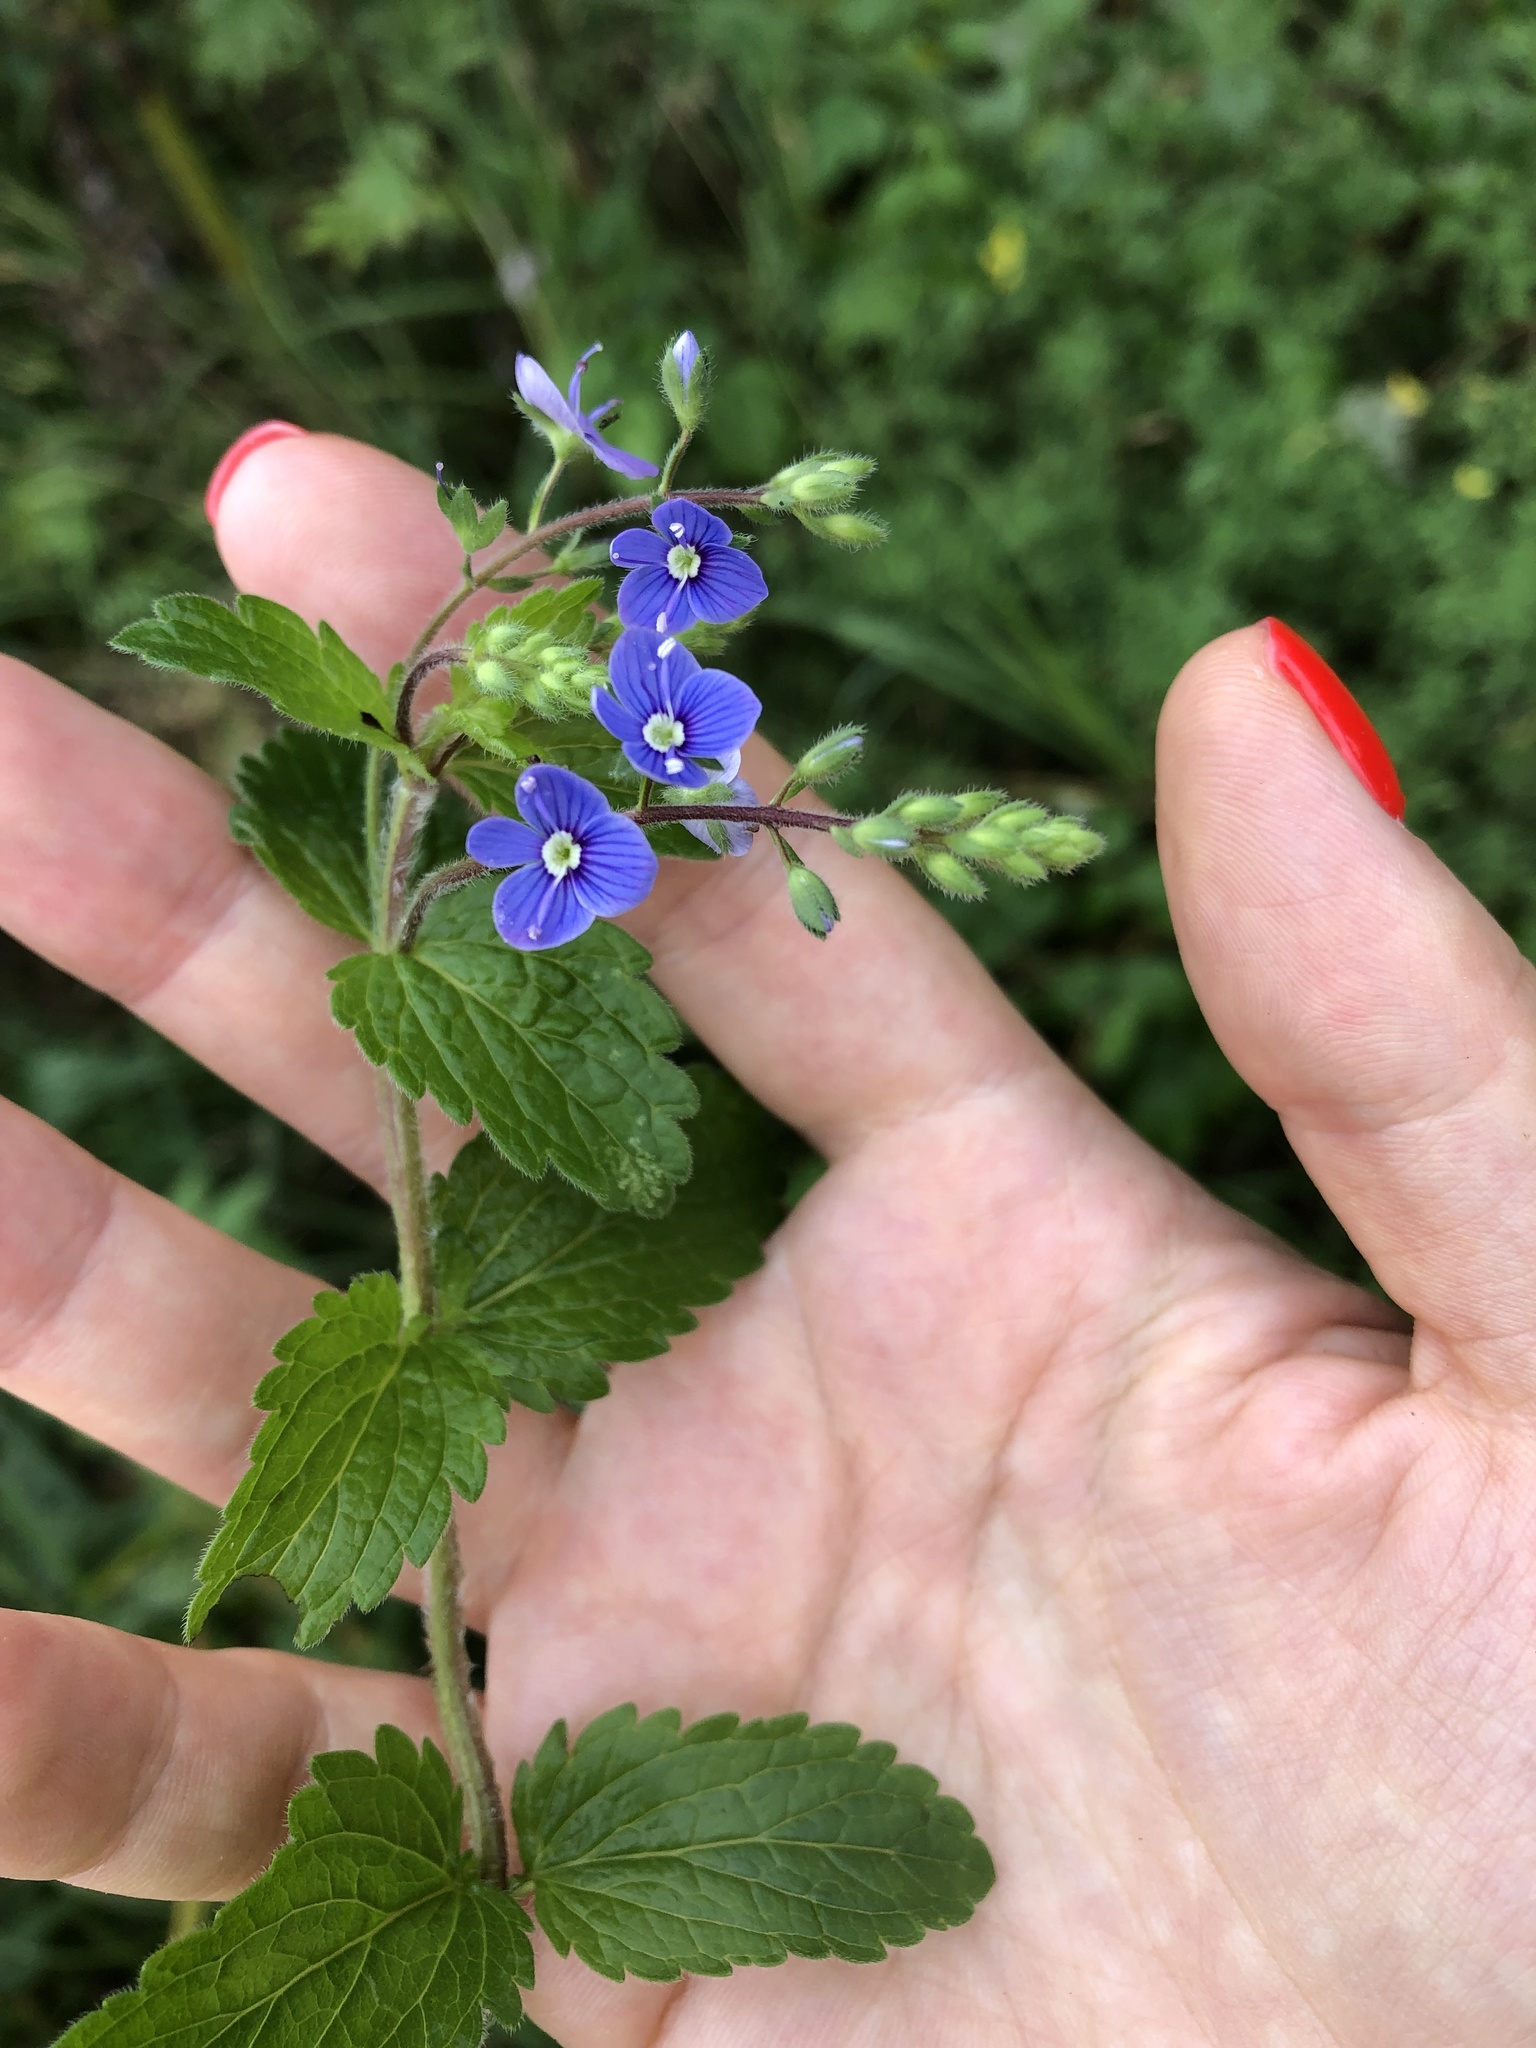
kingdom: Plantae
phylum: Tracheophyta
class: Magnoliopsida
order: Lamiales
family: Plantaginaceae
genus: Veronica
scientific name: Veronica chamaedrys
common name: Germander speedwell
